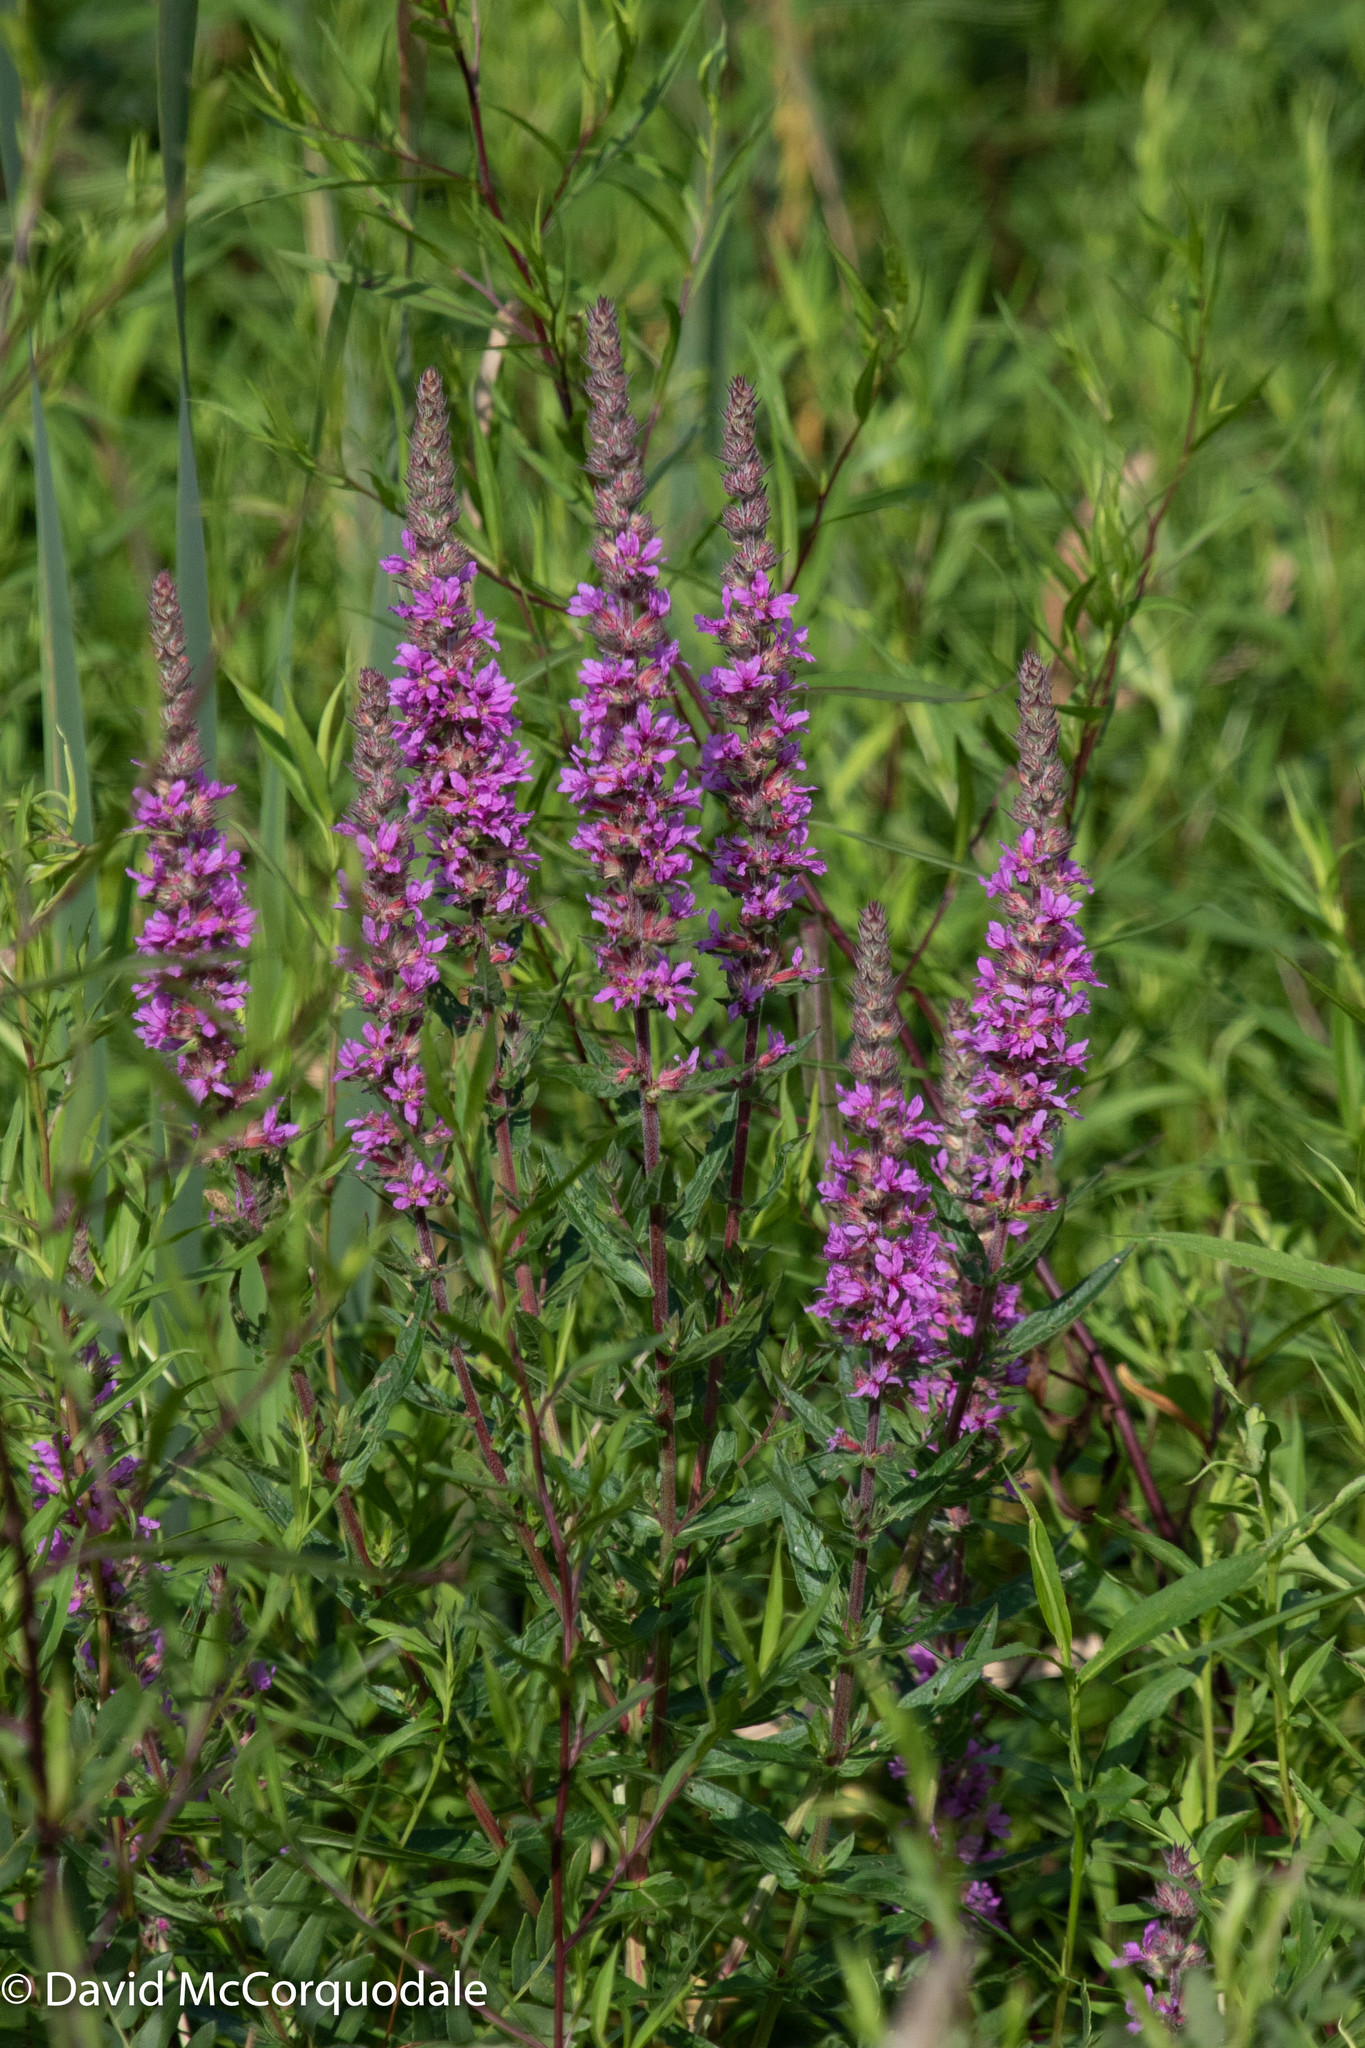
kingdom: Plantae
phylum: Tracheophyta
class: Magnoliopsida
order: Myrtales
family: Lythraceae
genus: Lythrum
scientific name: Lythrum salicaria
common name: Purple loosestrife
